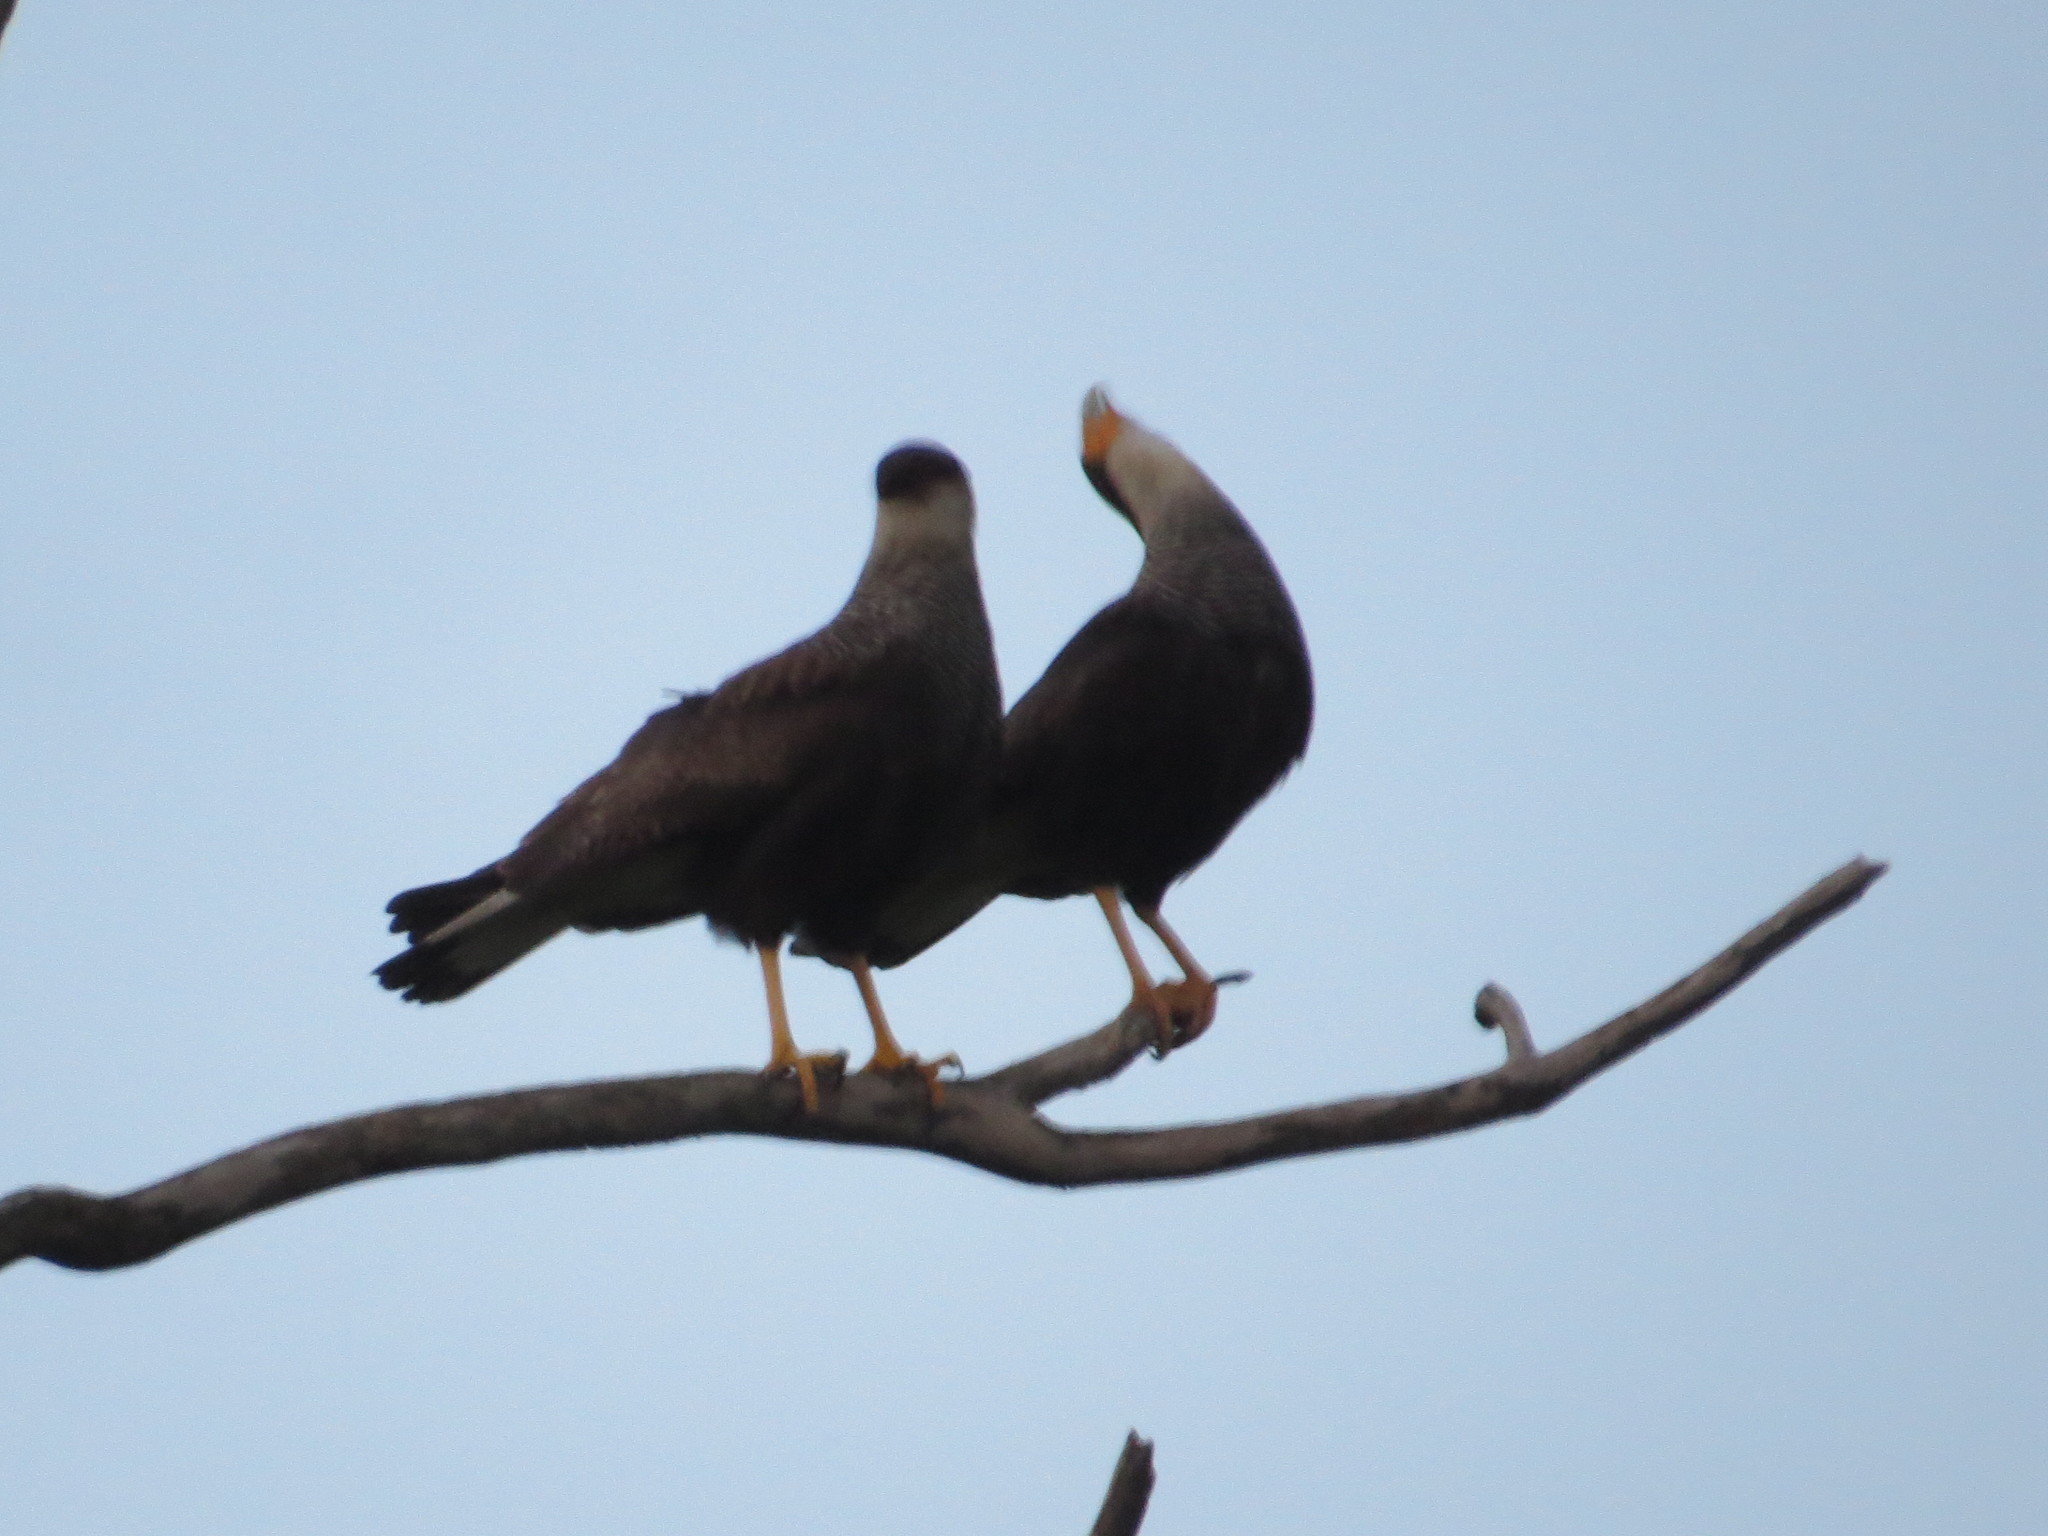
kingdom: Animalia
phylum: Chordata
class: Aves
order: Falconiformes
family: Falconidae
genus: Caracara
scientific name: Caracara plancus
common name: Southern caracara
